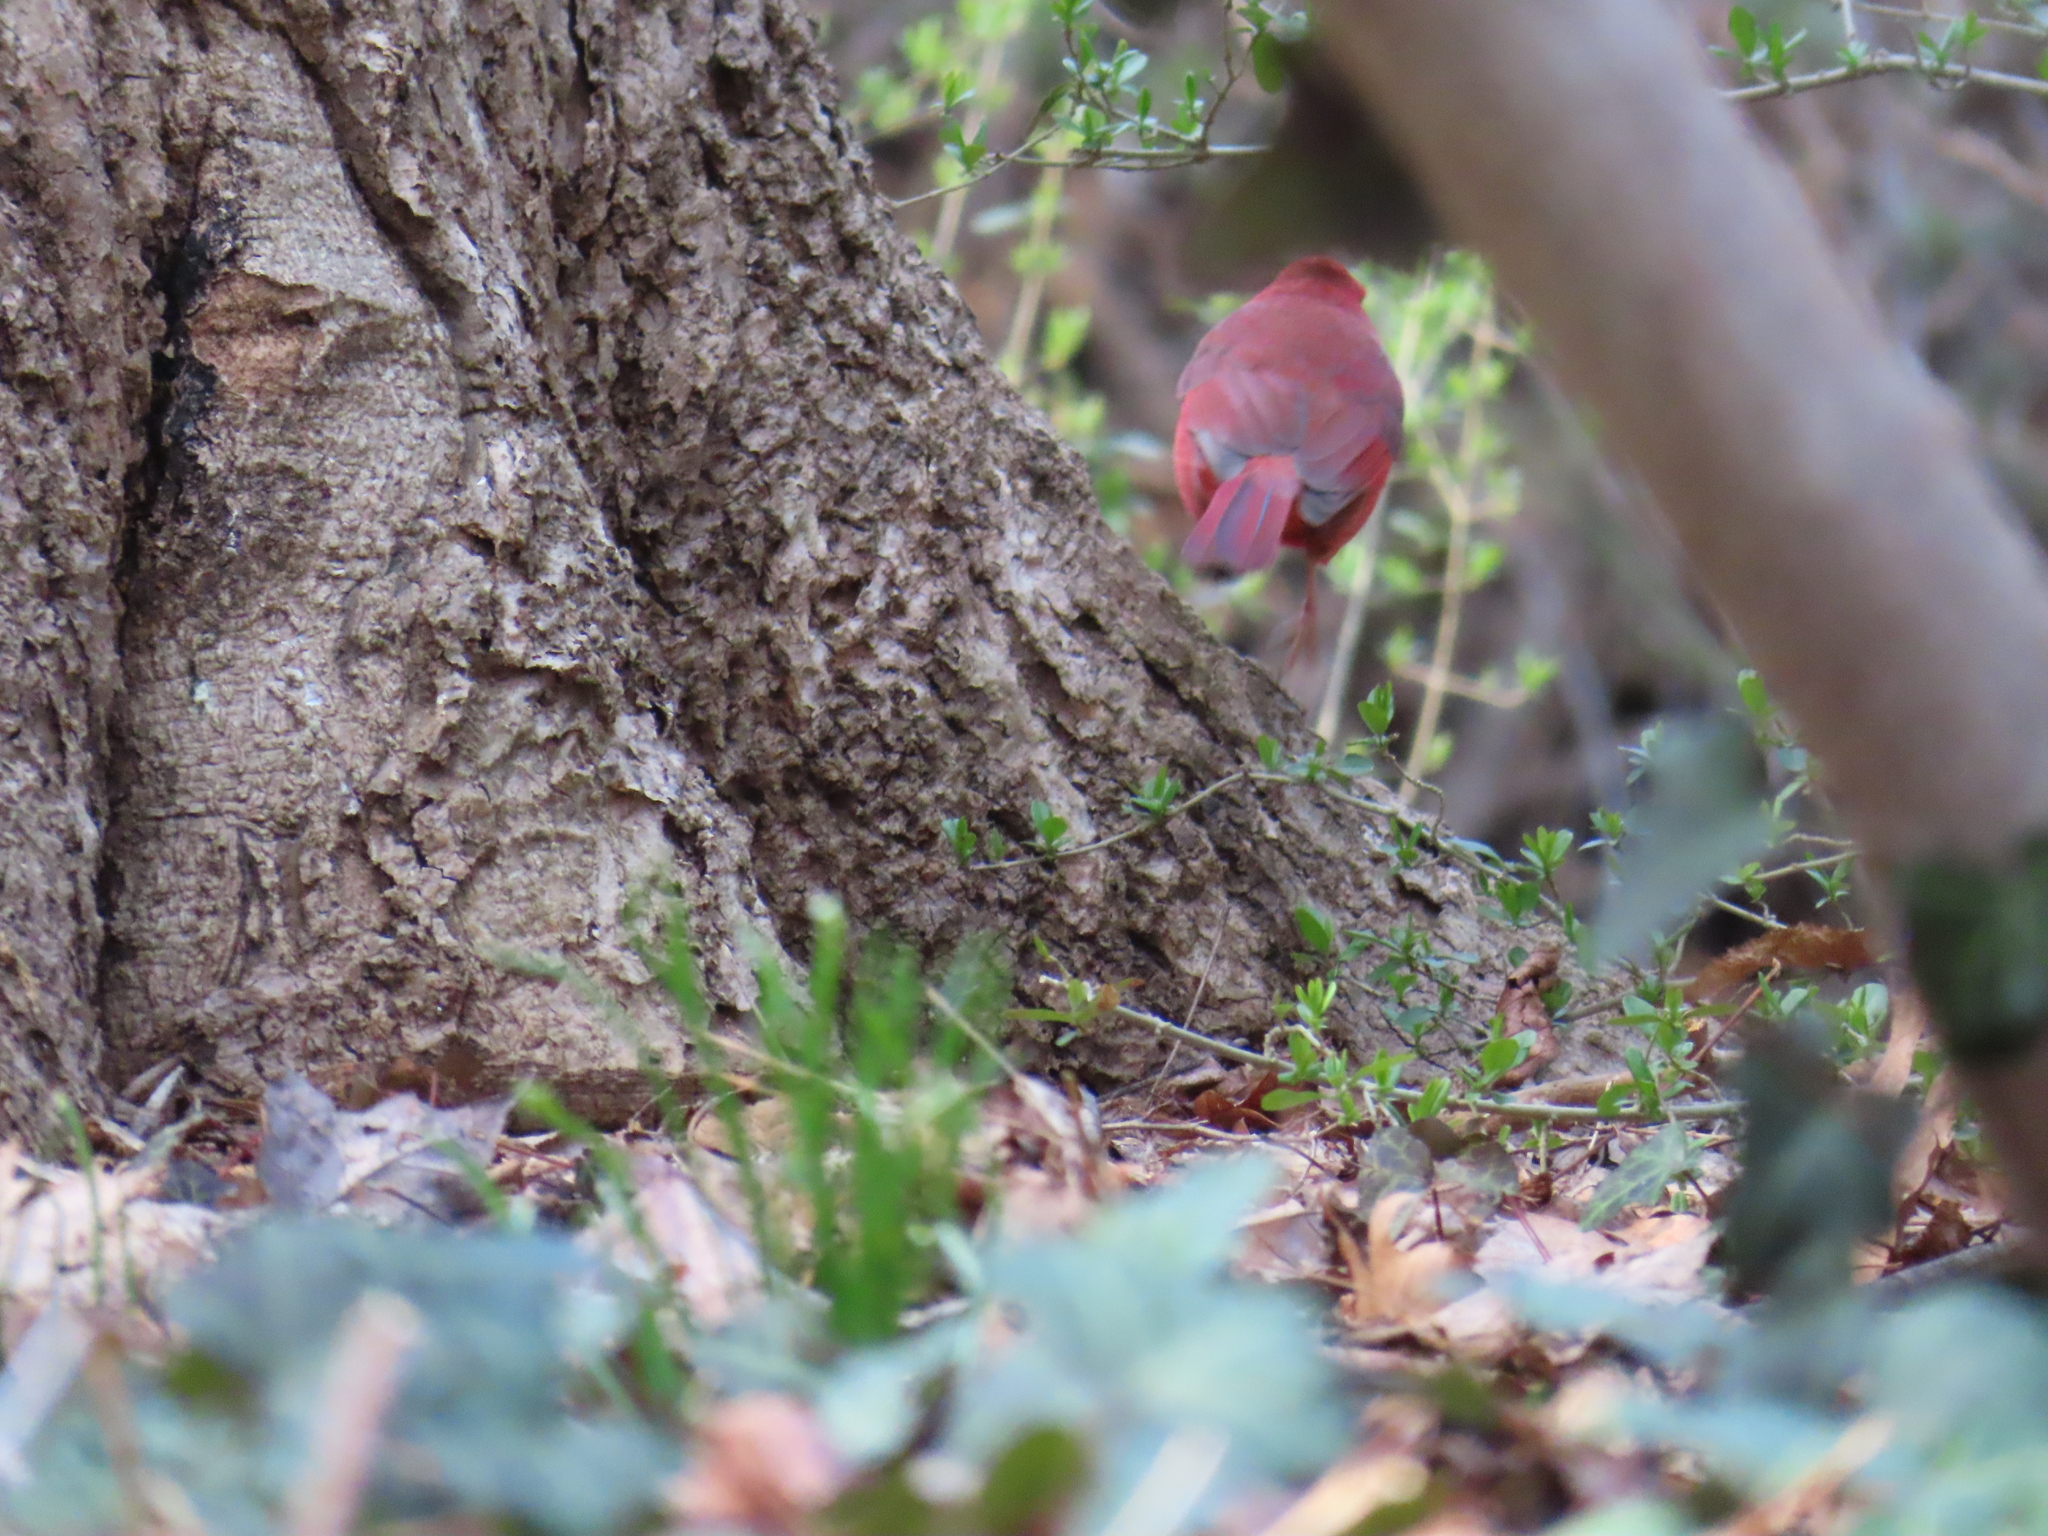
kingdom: Animalia
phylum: Chordata
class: Aves
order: Passeriformes
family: Cardinalidae
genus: Cardinalis
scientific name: Cardinalis cardinalis
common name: Northern cardinal
